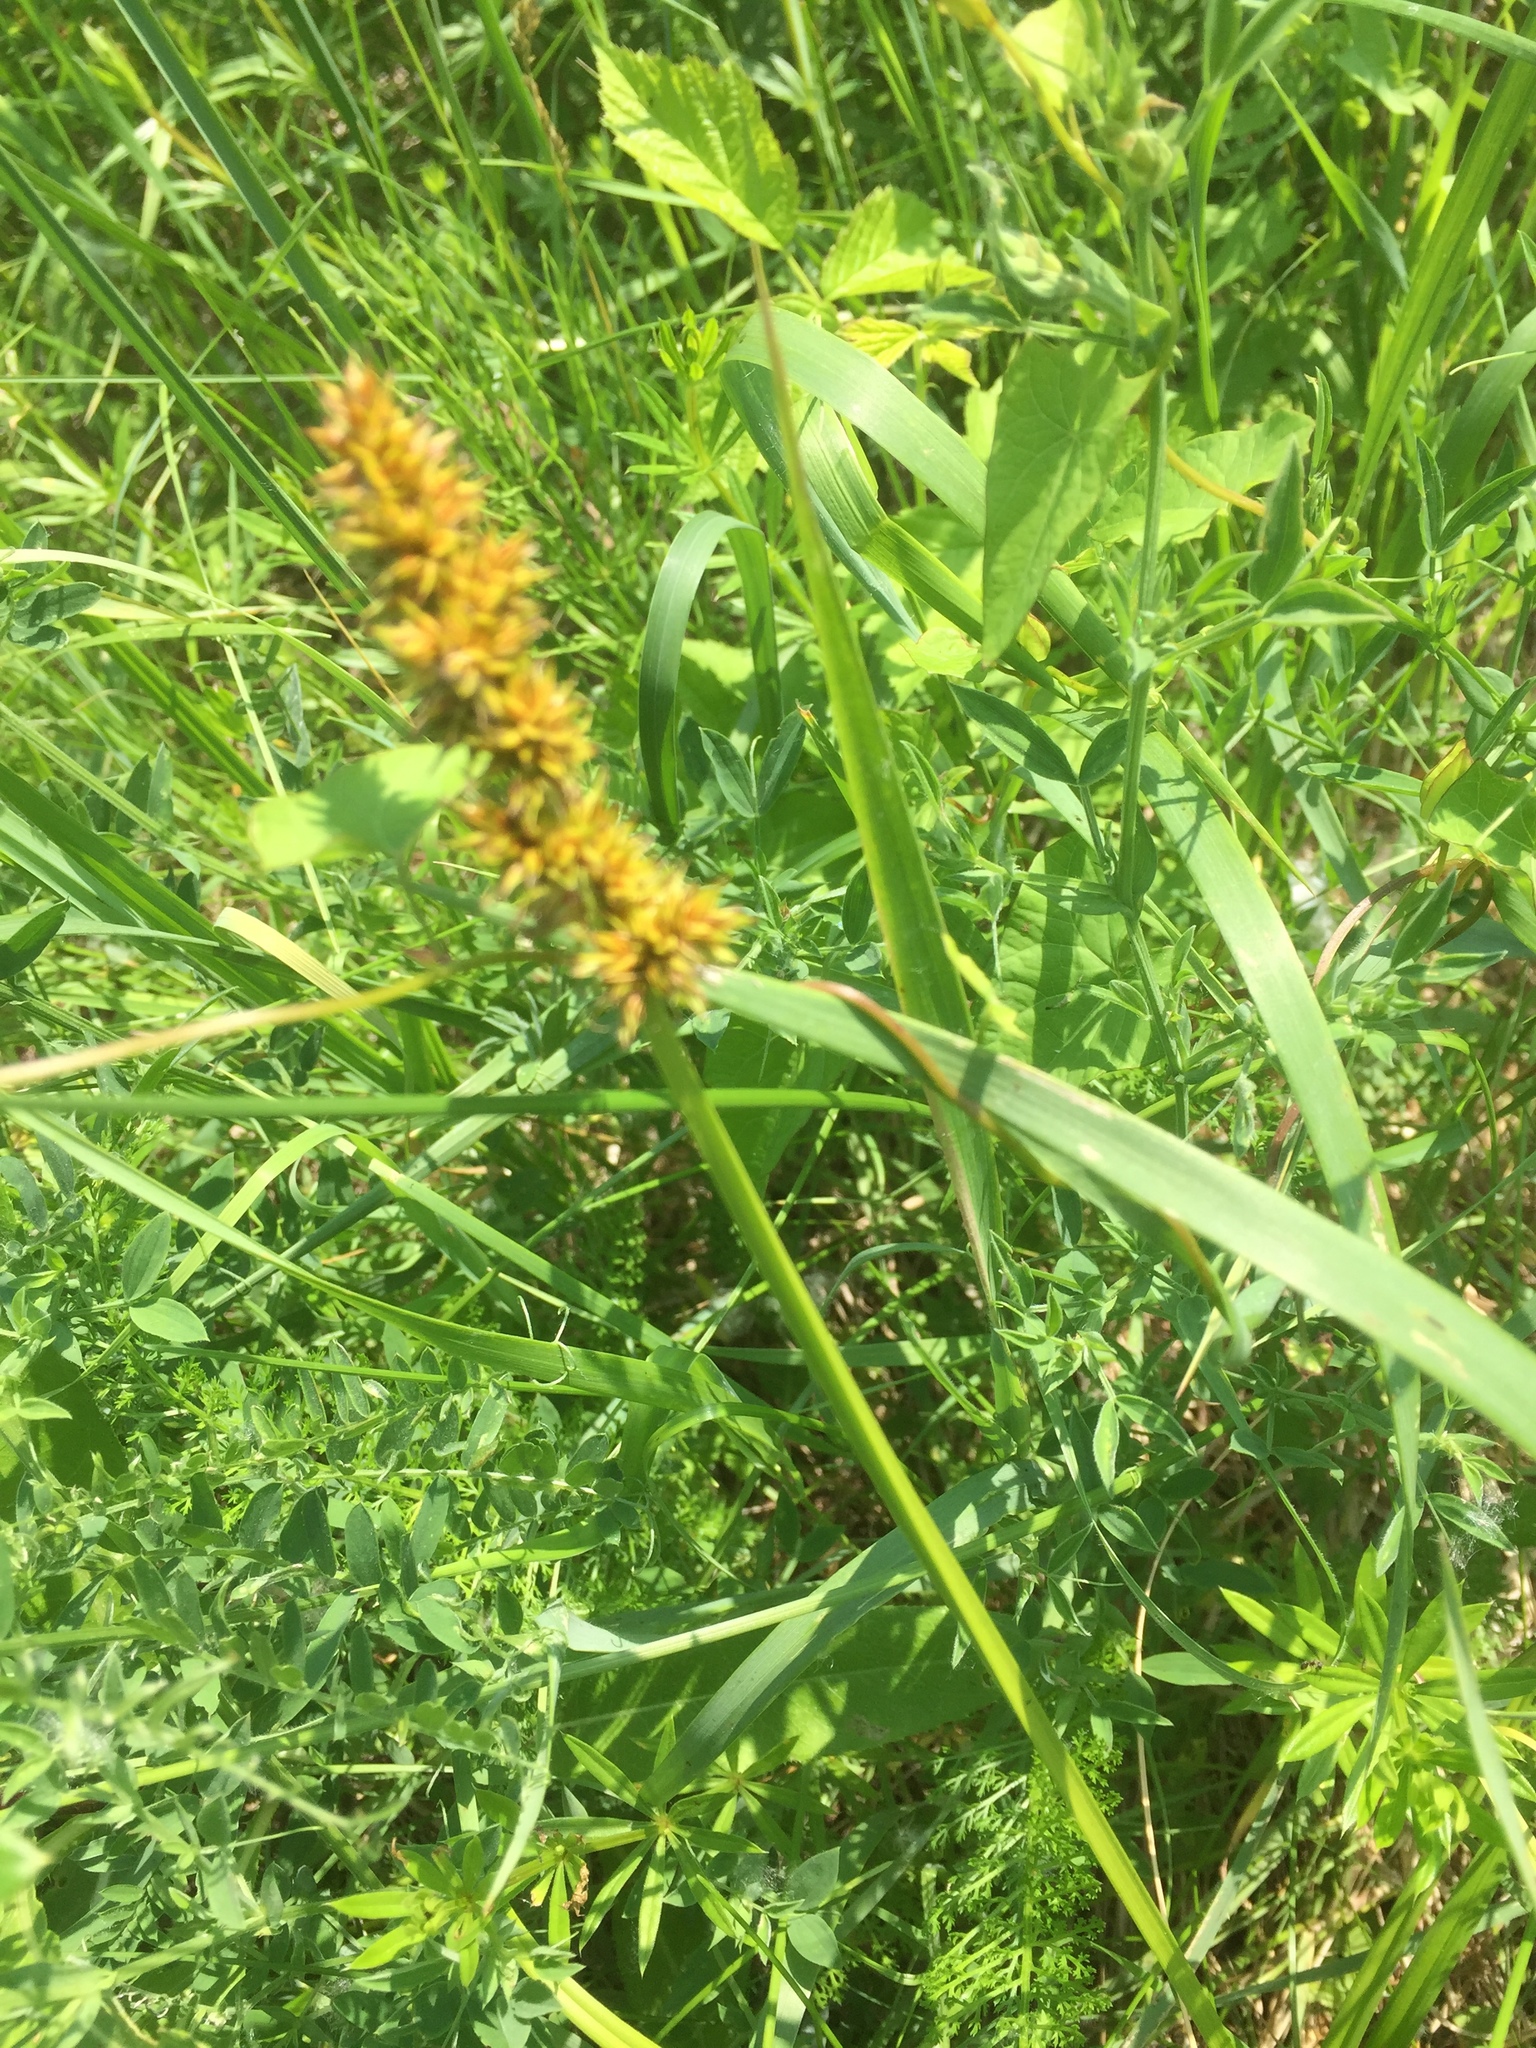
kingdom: Plantae
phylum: Tracheophyta
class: Liliopsida
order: Poales
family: Cyperaceae
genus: Carex
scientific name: Carex vulpina
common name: True fox-sedge
